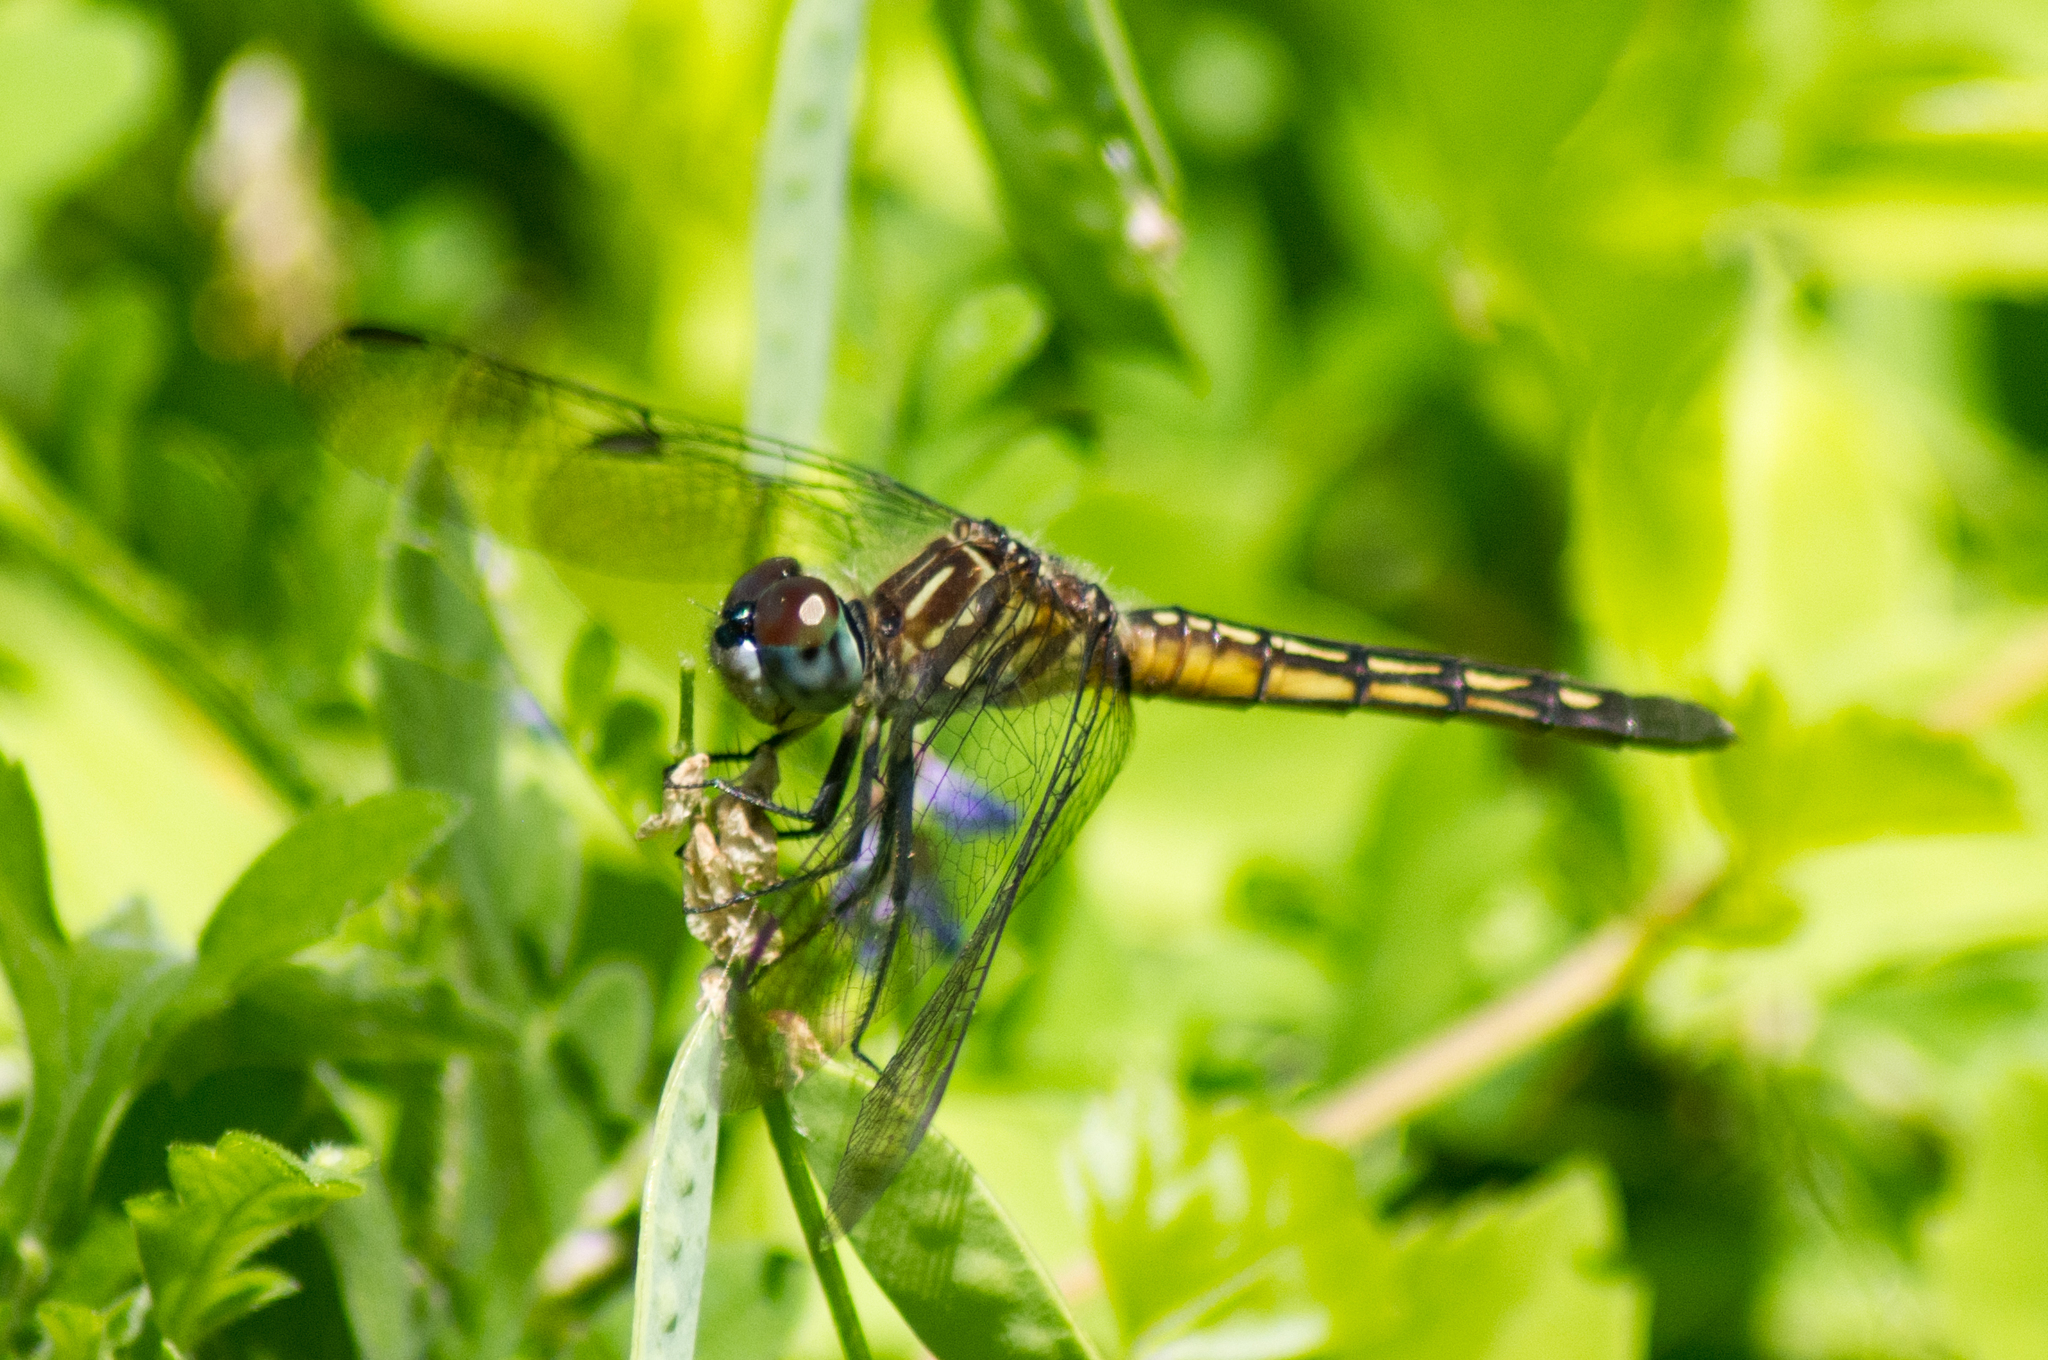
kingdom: Animalia
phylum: Arthropoda
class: Insecta
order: Odonata
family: Libellulidae
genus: Pachydiplax
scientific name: Pachydiplax longipennis
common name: Blue dasher
